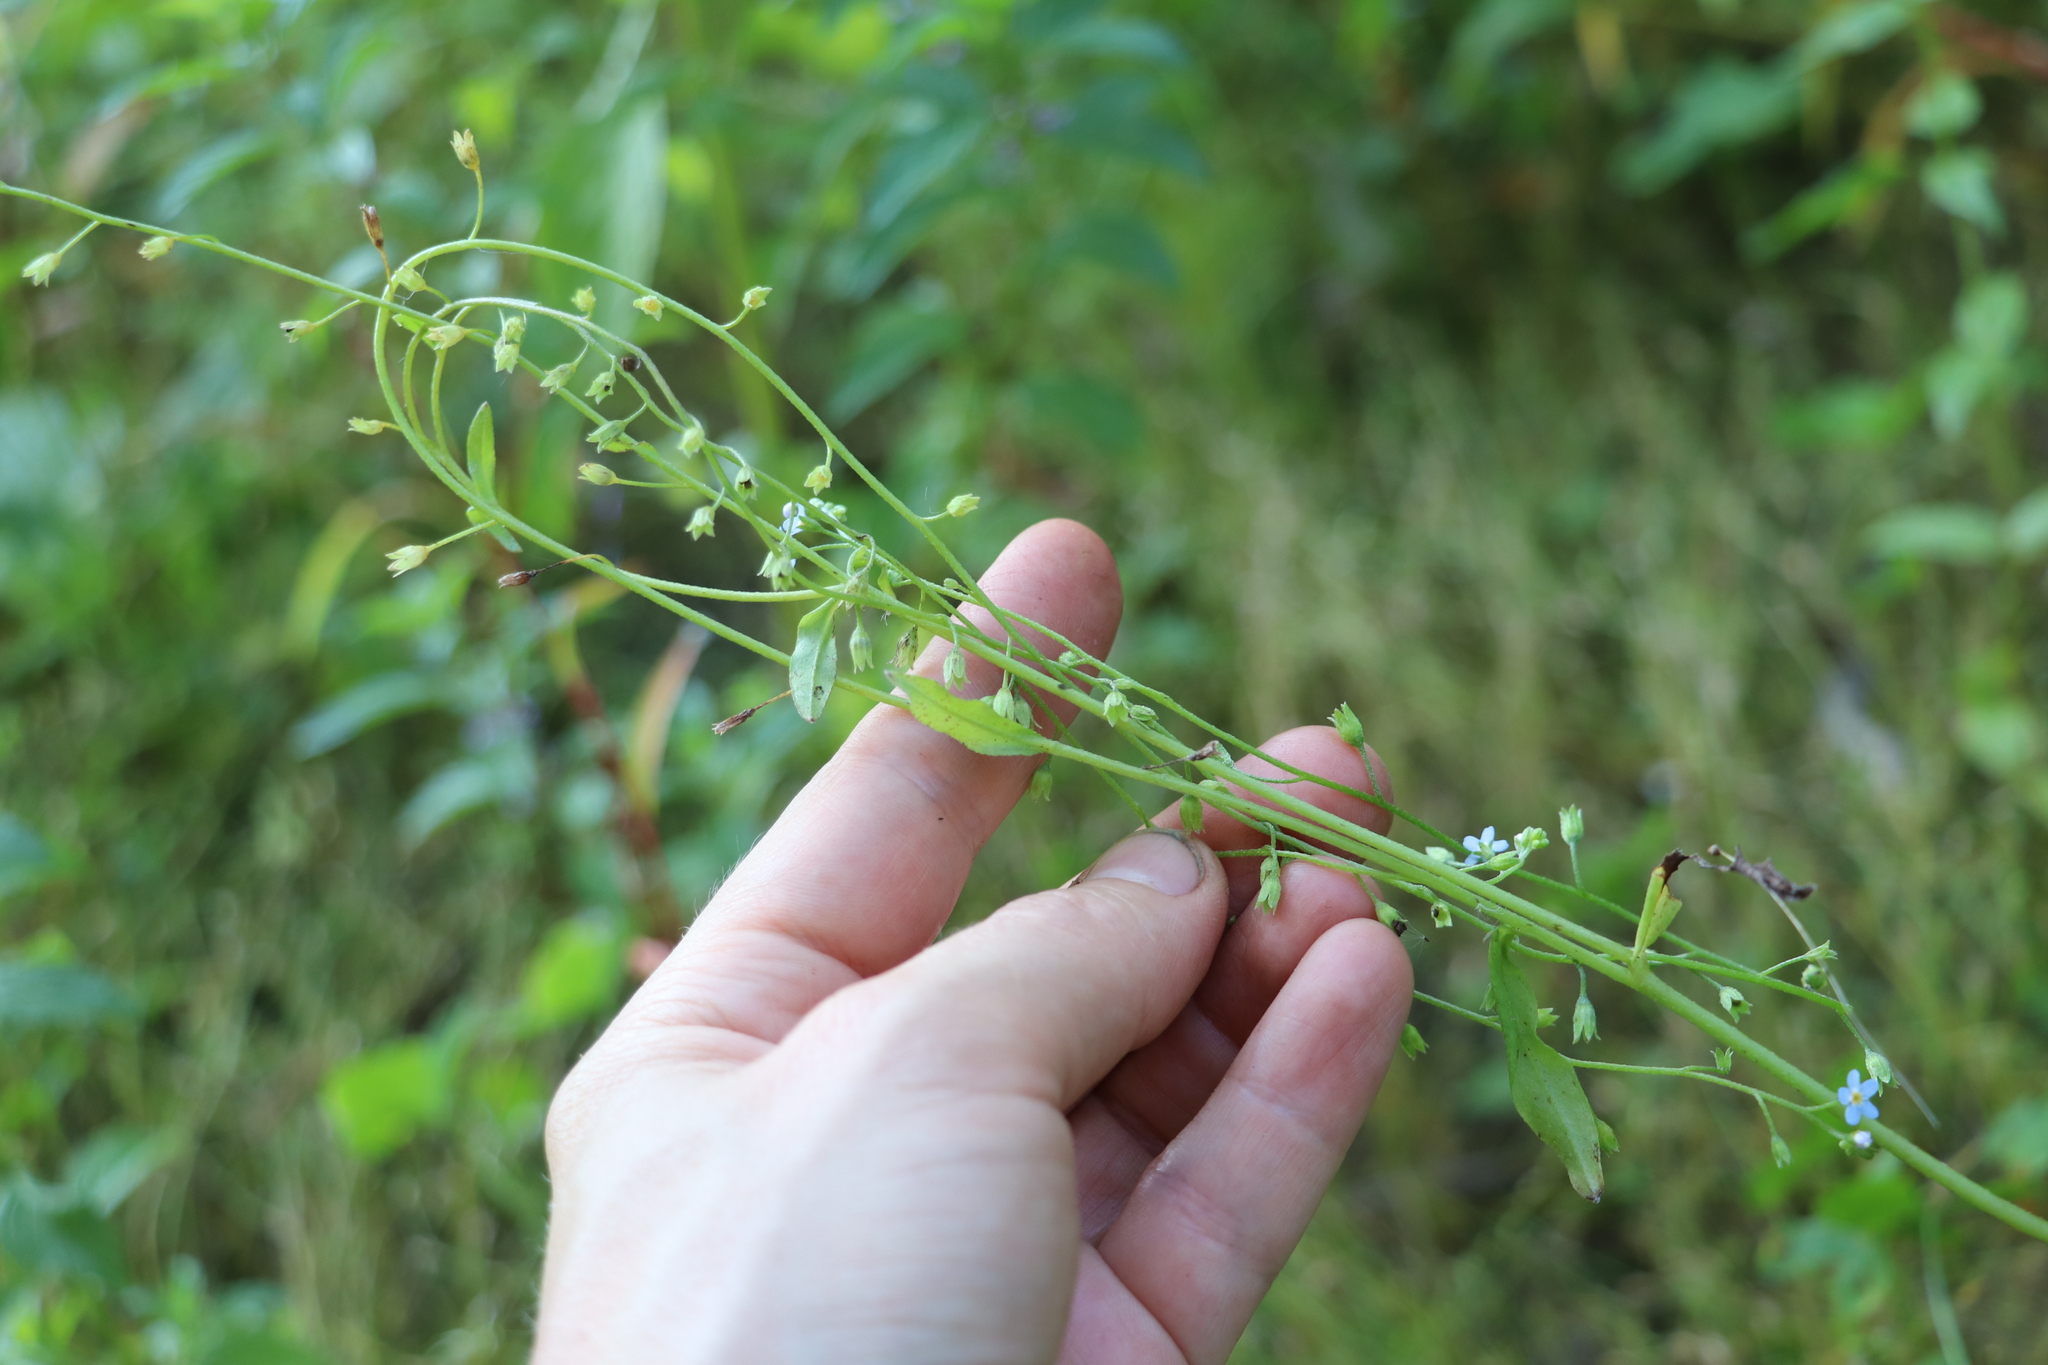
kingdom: Plantae
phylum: Tracheophyta
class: Magnoliopsida
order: Boraginales
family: Boraginaceae
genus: Myosotis
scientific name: Myosotis laxa
